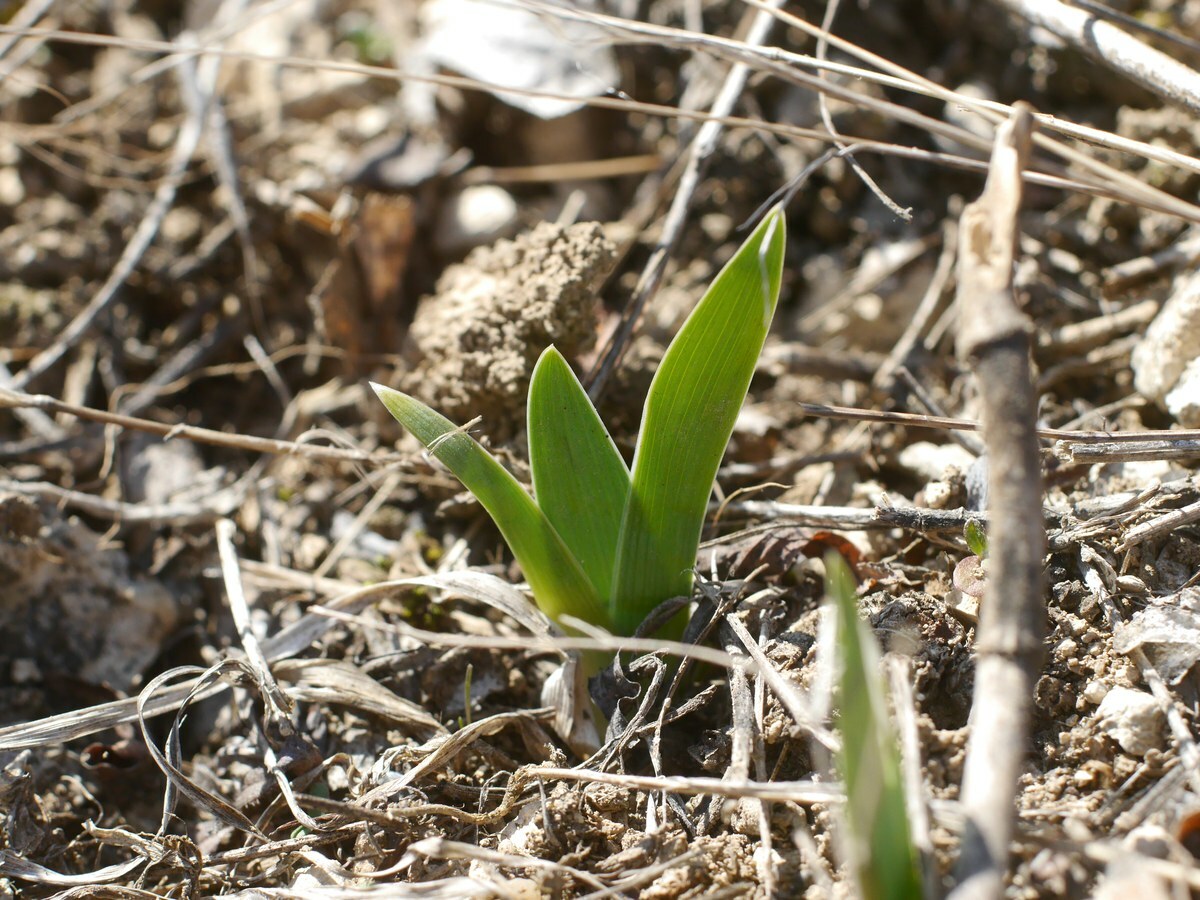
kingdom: Plantae
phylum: Tracheophyta
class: Liliopsida
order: Asparagales
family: Iridaceae
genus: Iris
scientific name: Iris pumila
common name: Dwarf iris
